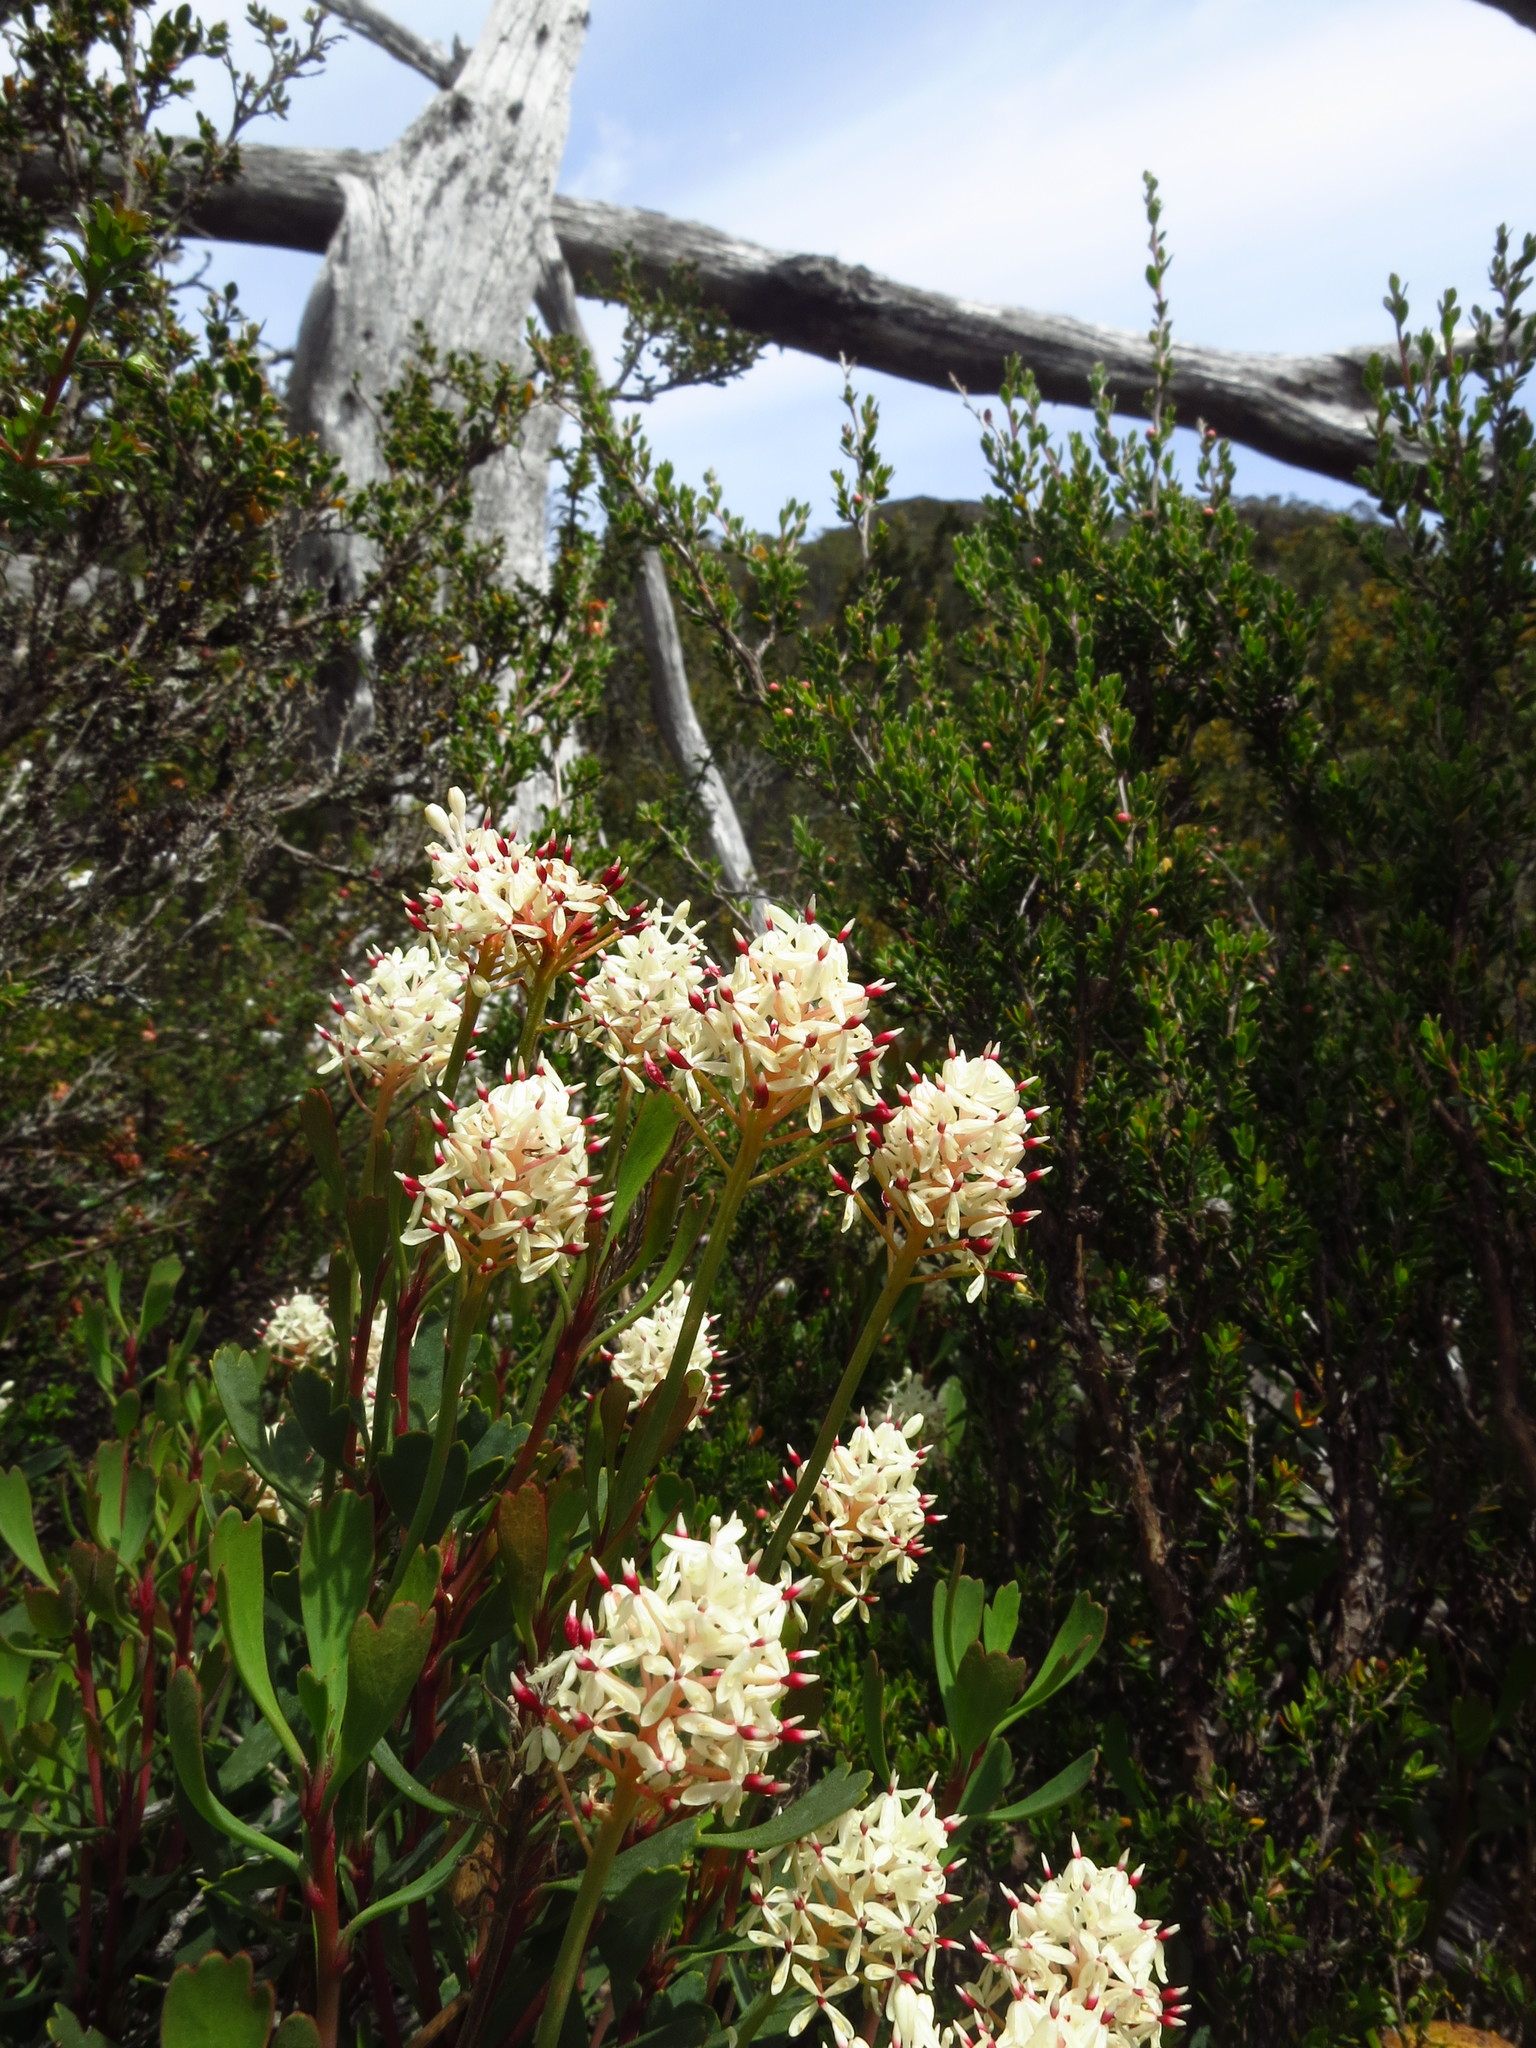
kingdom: Plantae
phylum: Tracheophyta
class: Magnoliopsida
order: Proteales
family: Proteaceae
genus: Bellendena
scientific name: Bellendena montana
